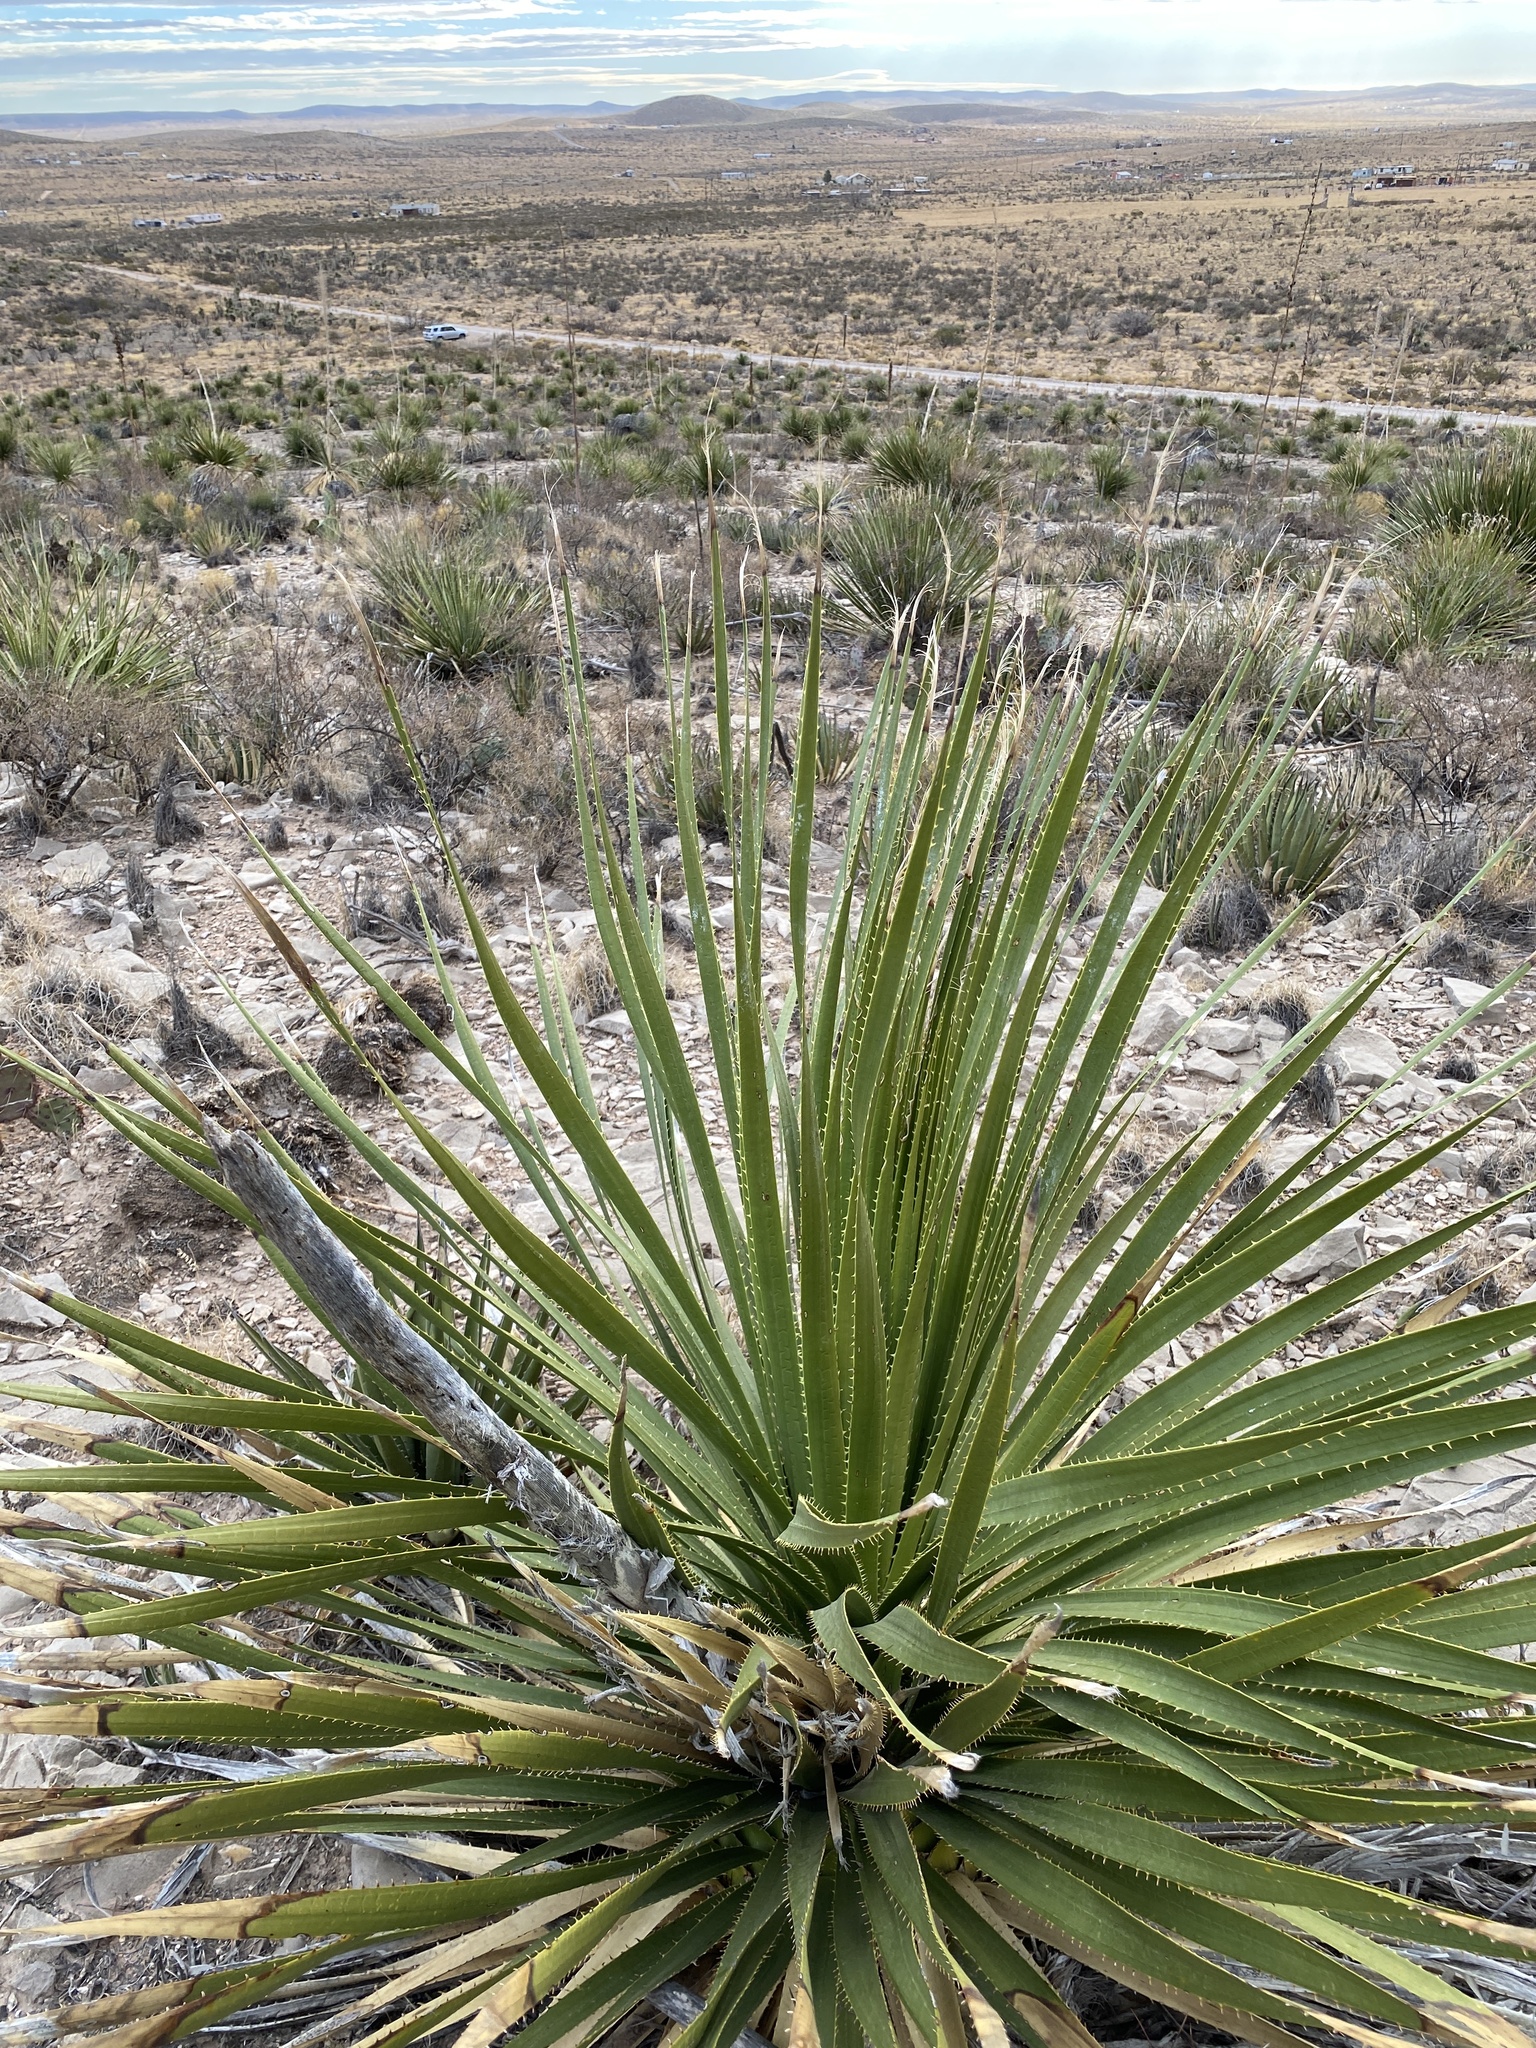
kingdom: Plantae
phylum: Tracheophyta
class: Liliopsida
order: Asparagales
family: Asparagaceae
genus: Dasylirion
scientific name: Dasylirion wheeleri
